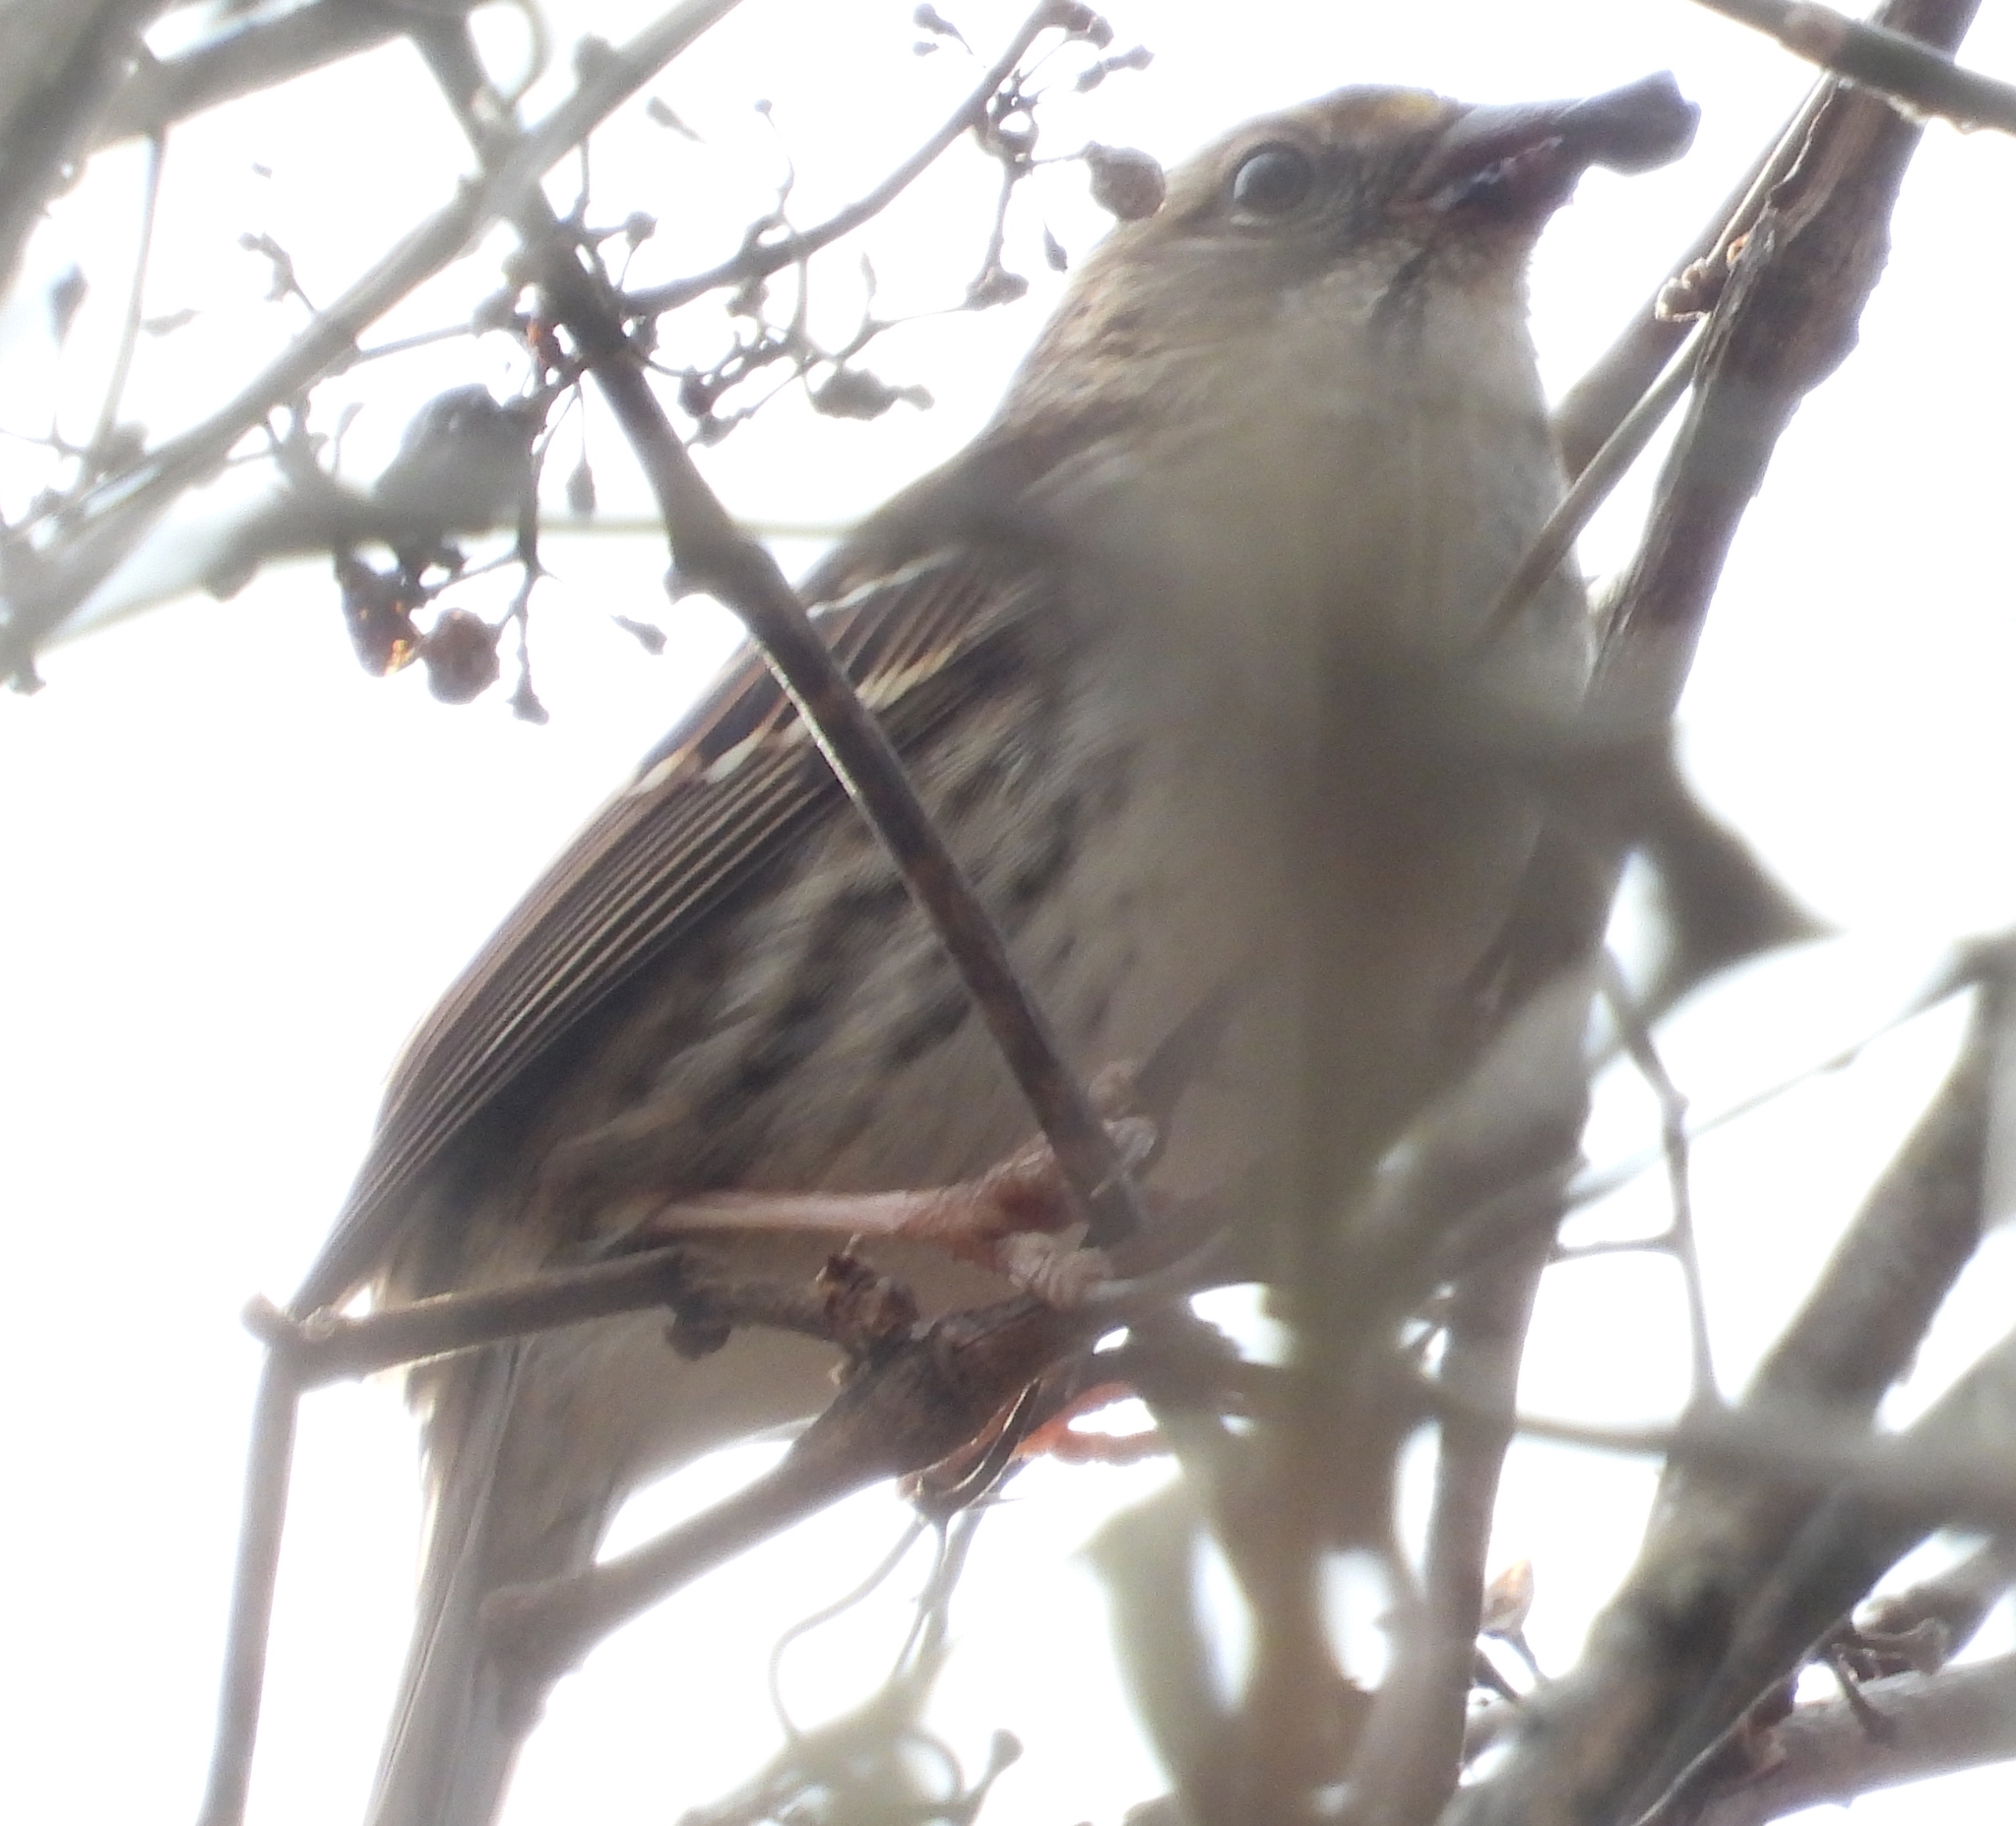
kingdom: Animalia
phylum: Chordata
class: Aves
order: Passeriformes
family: Passerellidae
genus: Zonotrichia
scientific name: Zonotrichia albicollis
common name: White-throated sparrow
